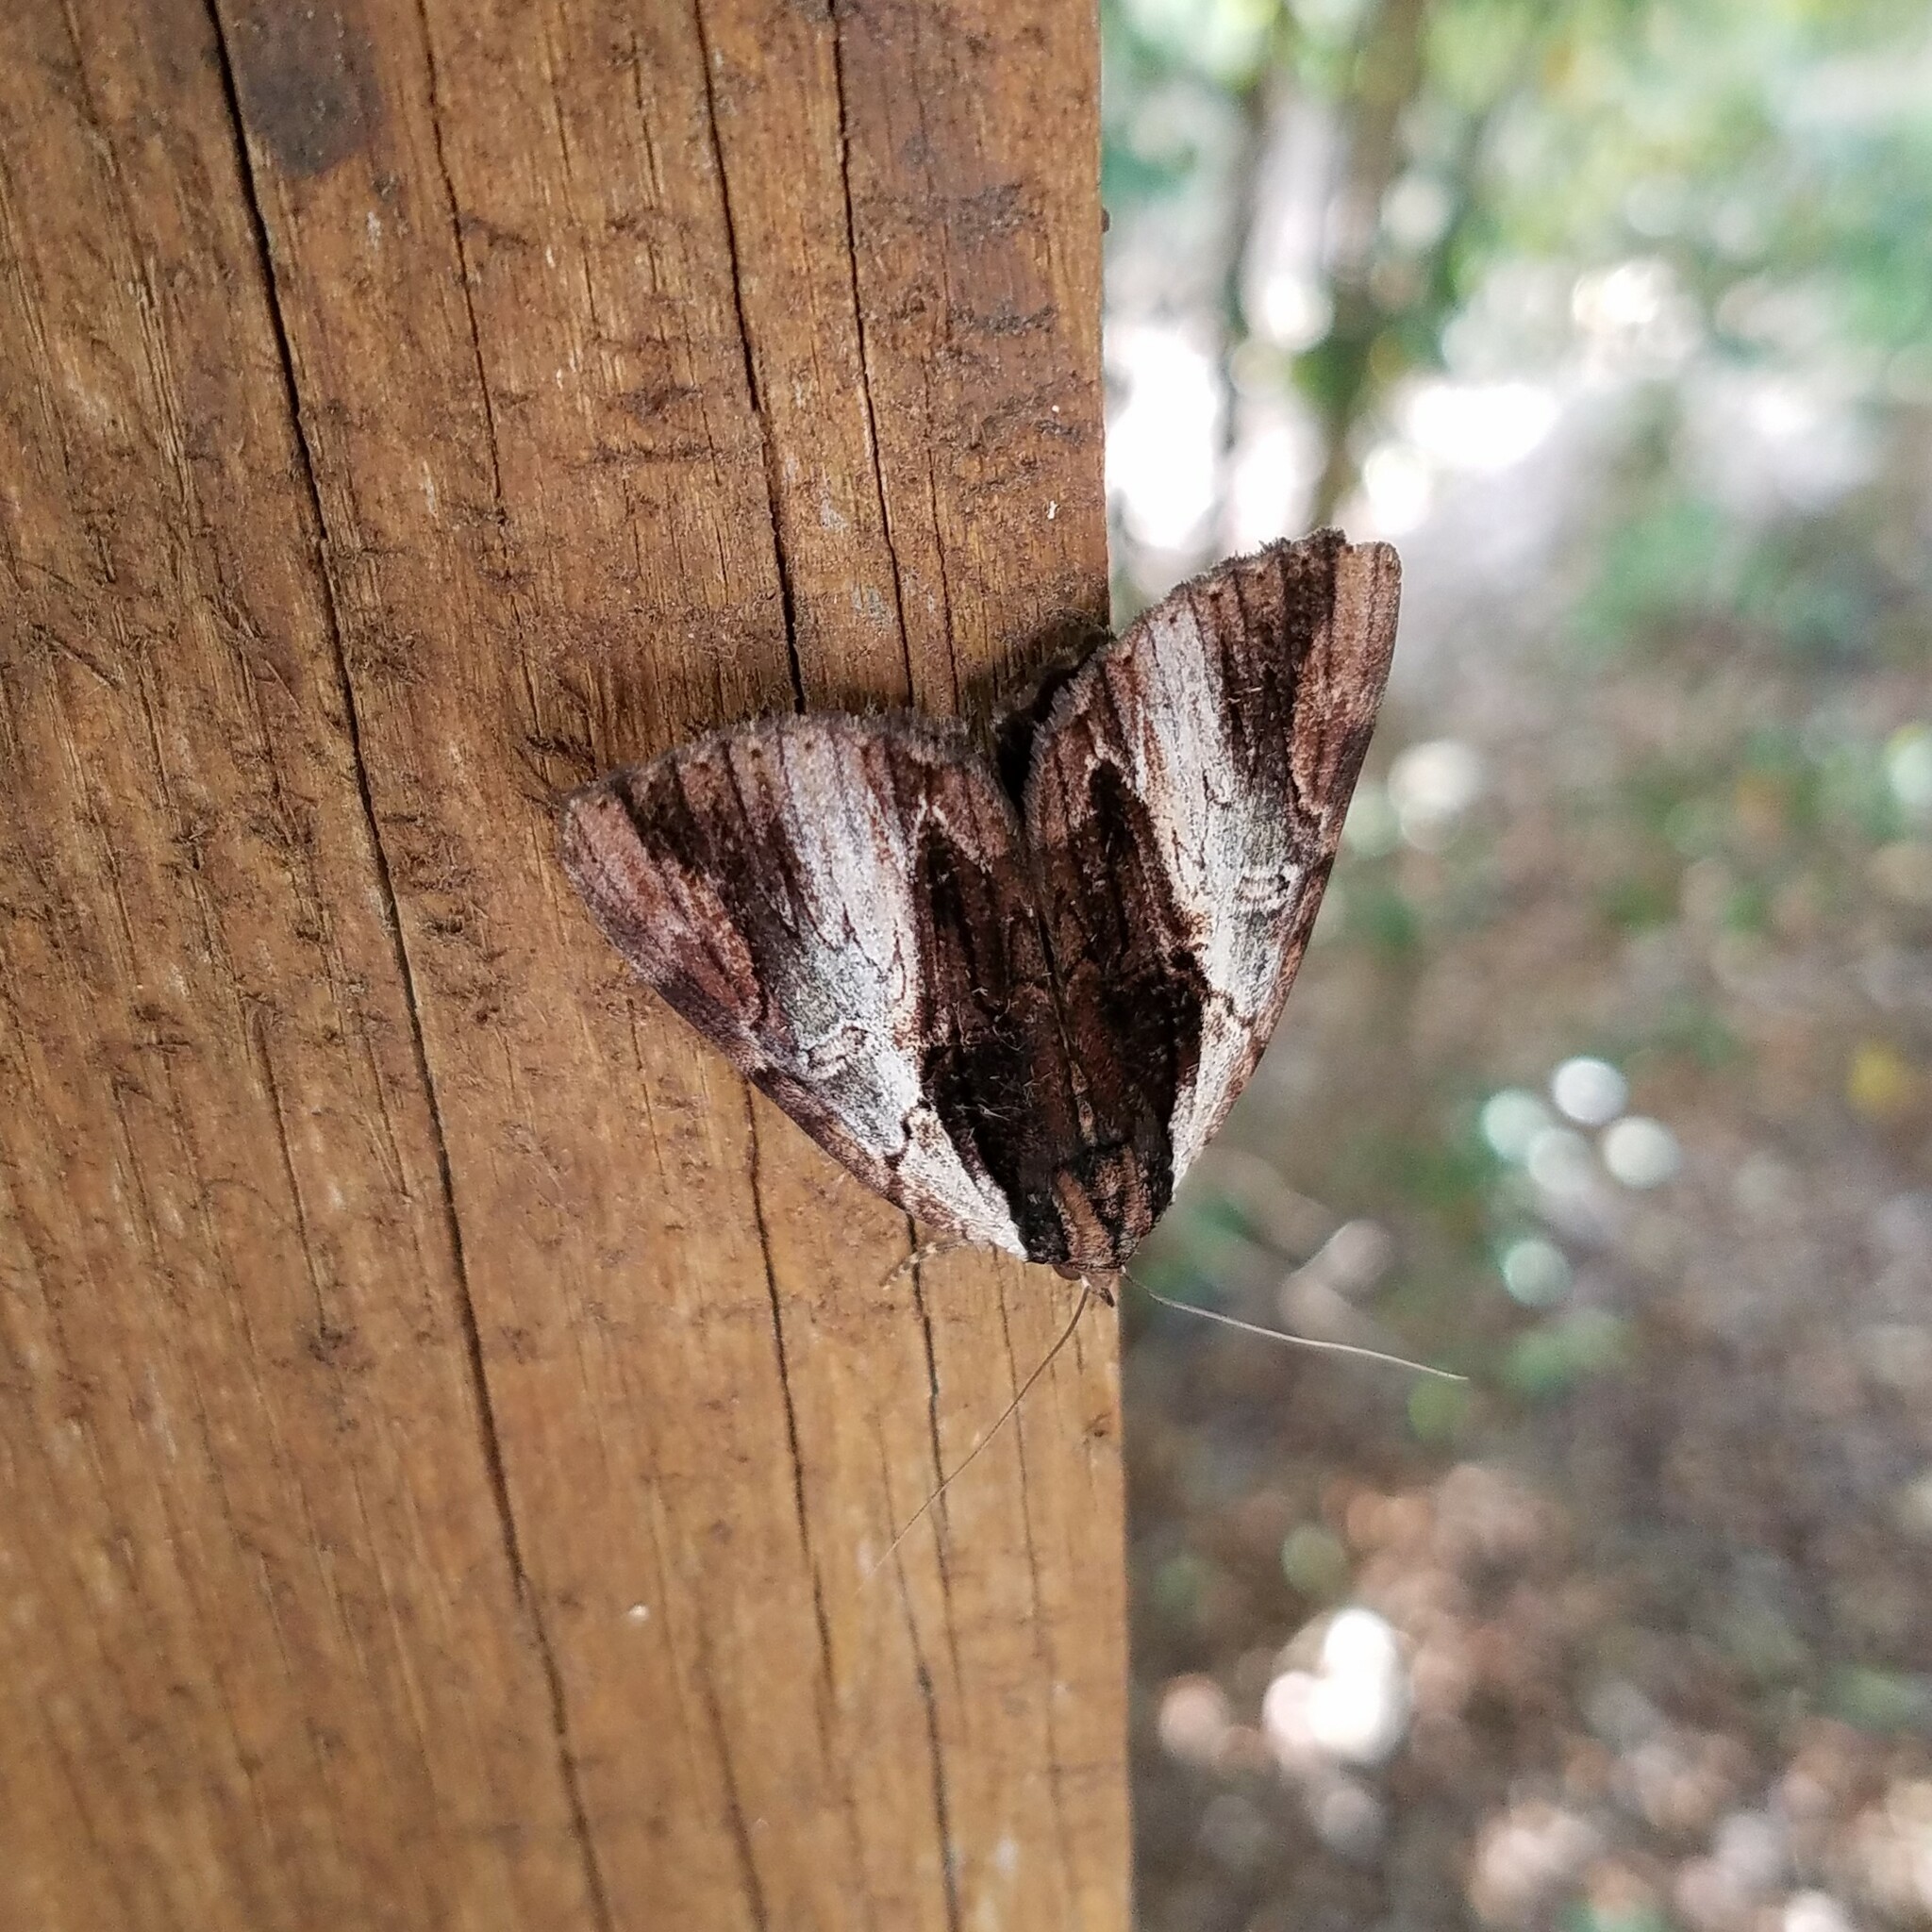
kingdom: Animalia
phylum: Arthropoda
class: Insecta
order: Lepidoptera
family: Erebidae
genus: Catocala
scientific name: Catocala ultronia
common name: Ultronia underwing
